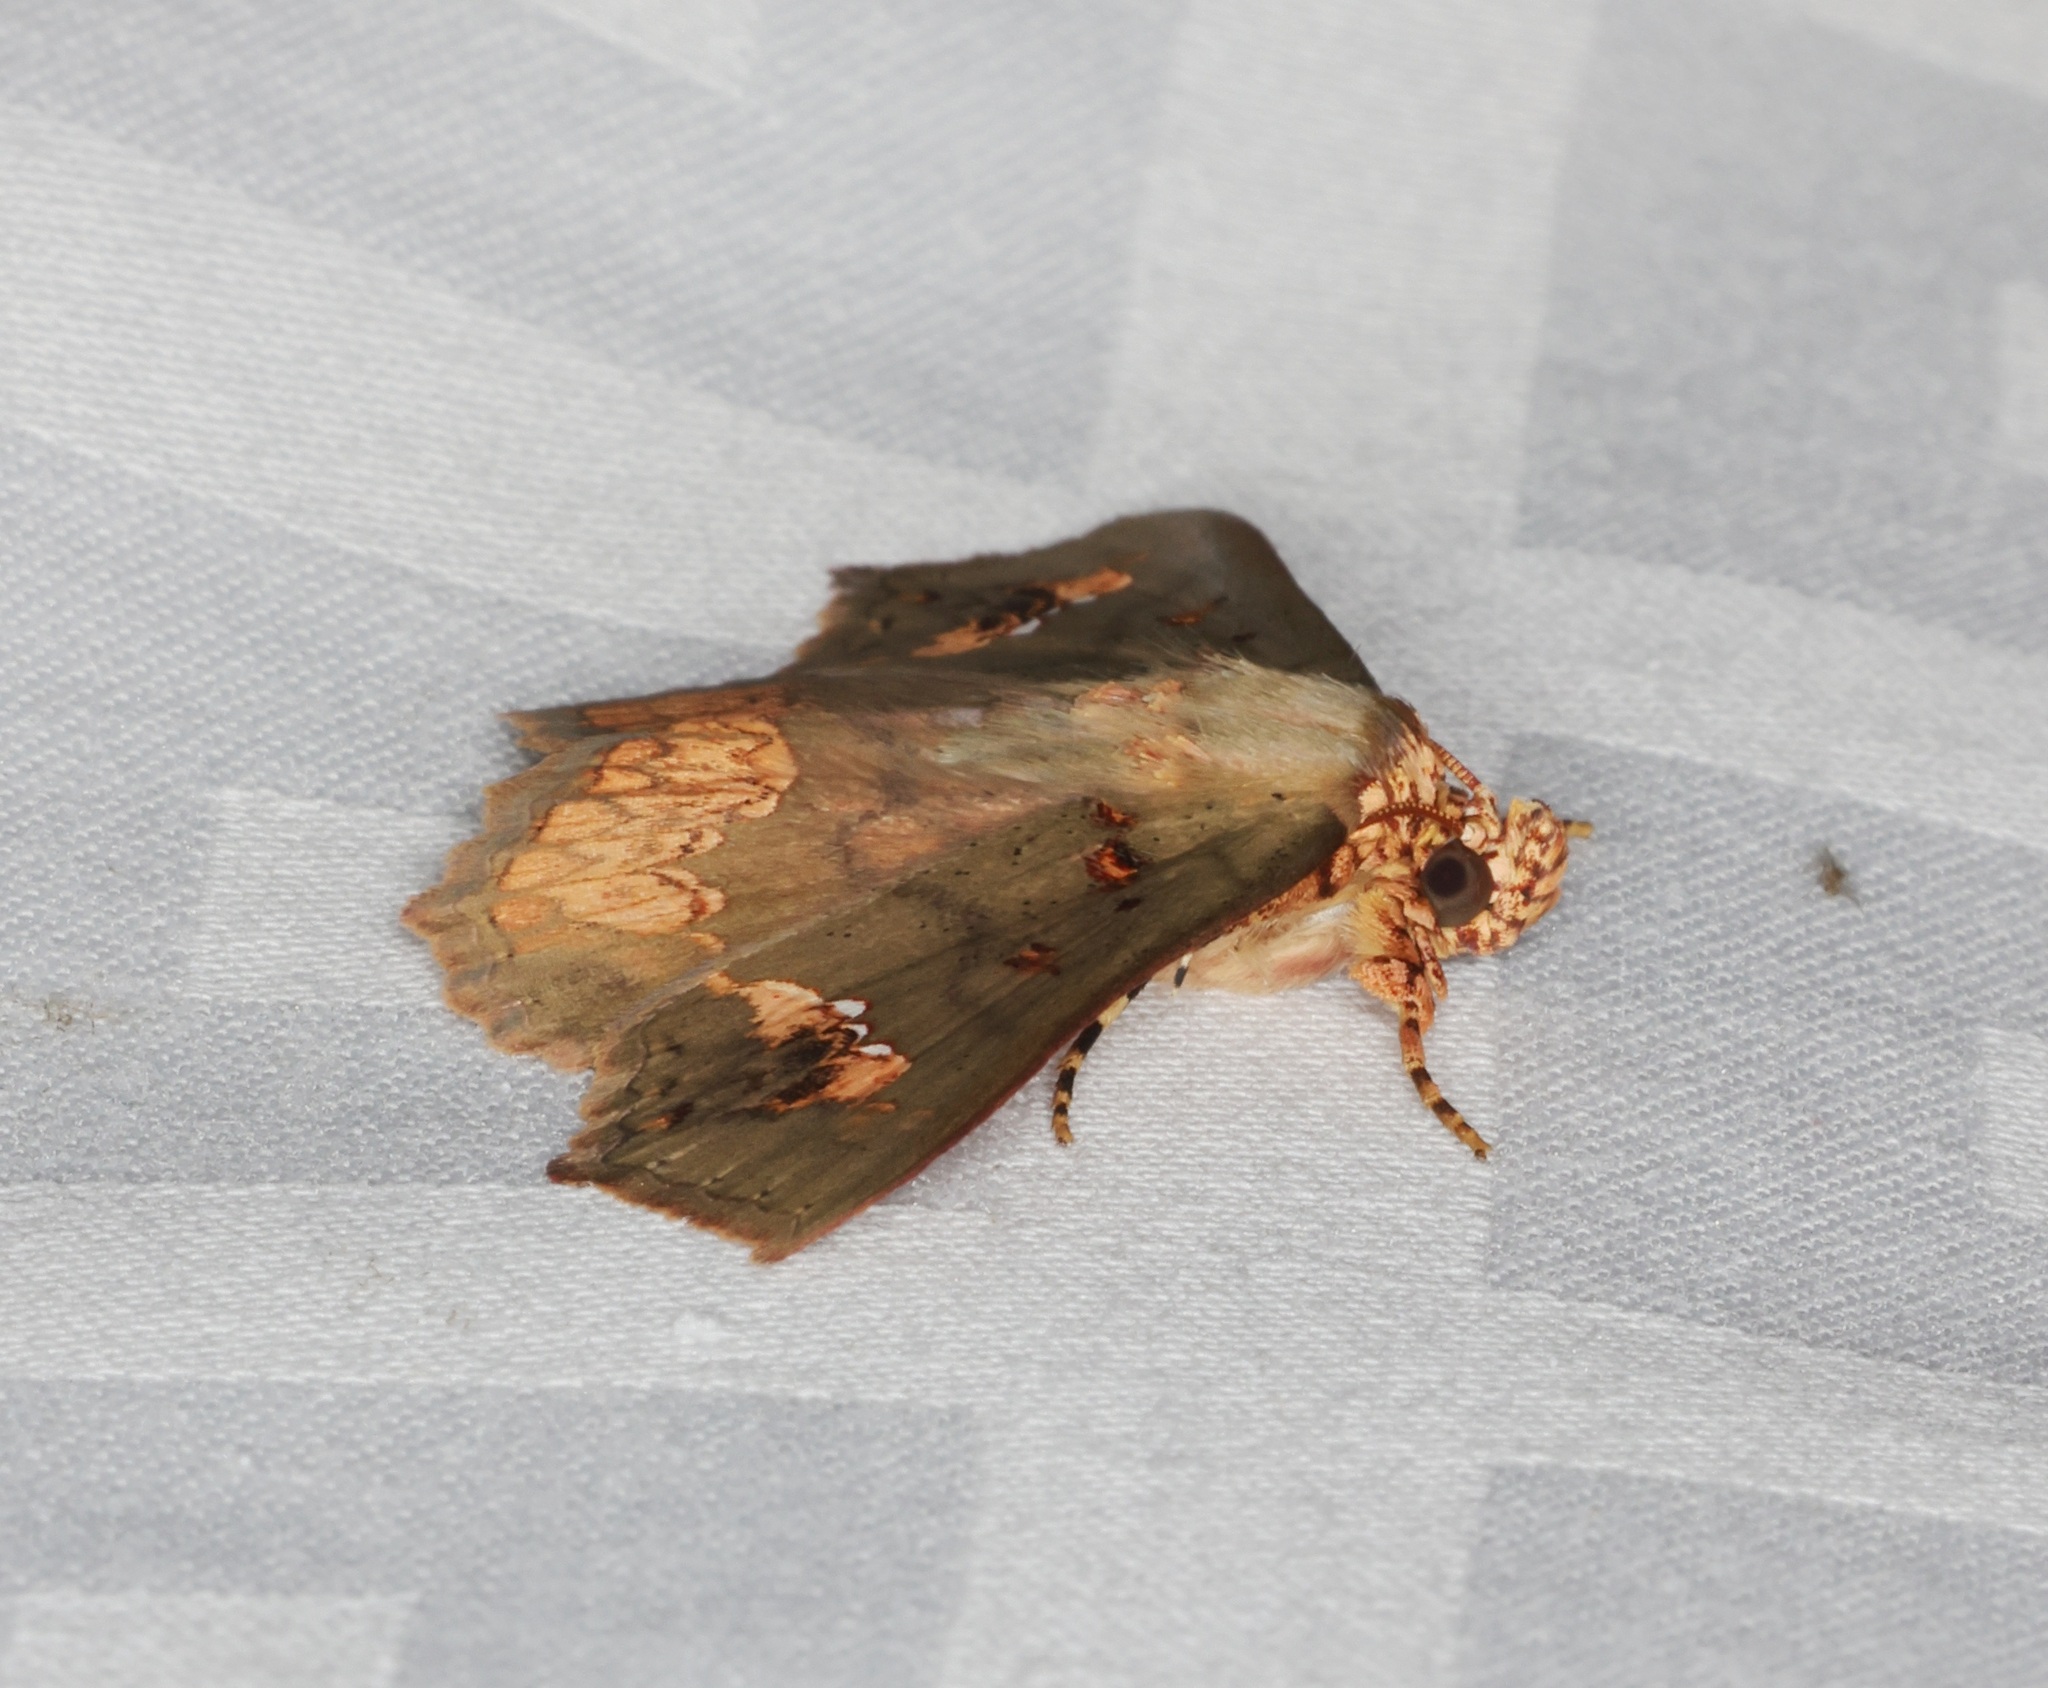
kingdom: Animalia
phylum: Arthropoda
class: Insecta
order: Lepidoptera
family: Erebidae
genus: Lopharthrum
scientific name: Lopharthrum comprimens
